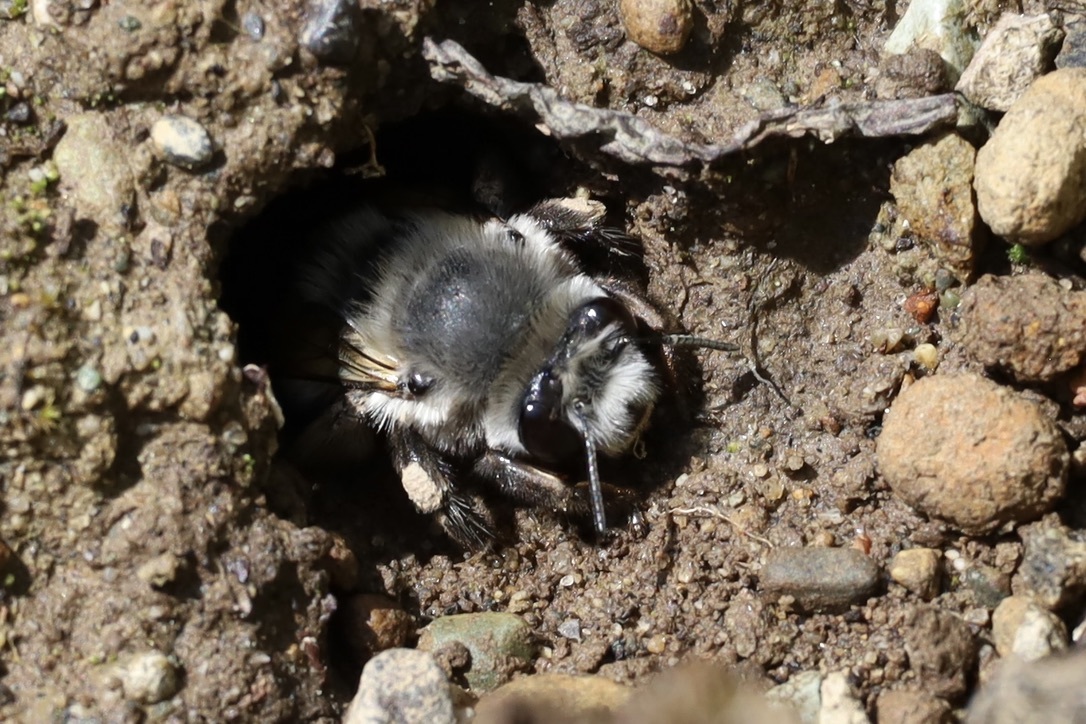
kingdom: Animalia
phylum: Arthropoda
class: Insecta
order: Hymenoptera
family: Apidae
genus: Anthophora
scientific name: Anthophora pacifica
